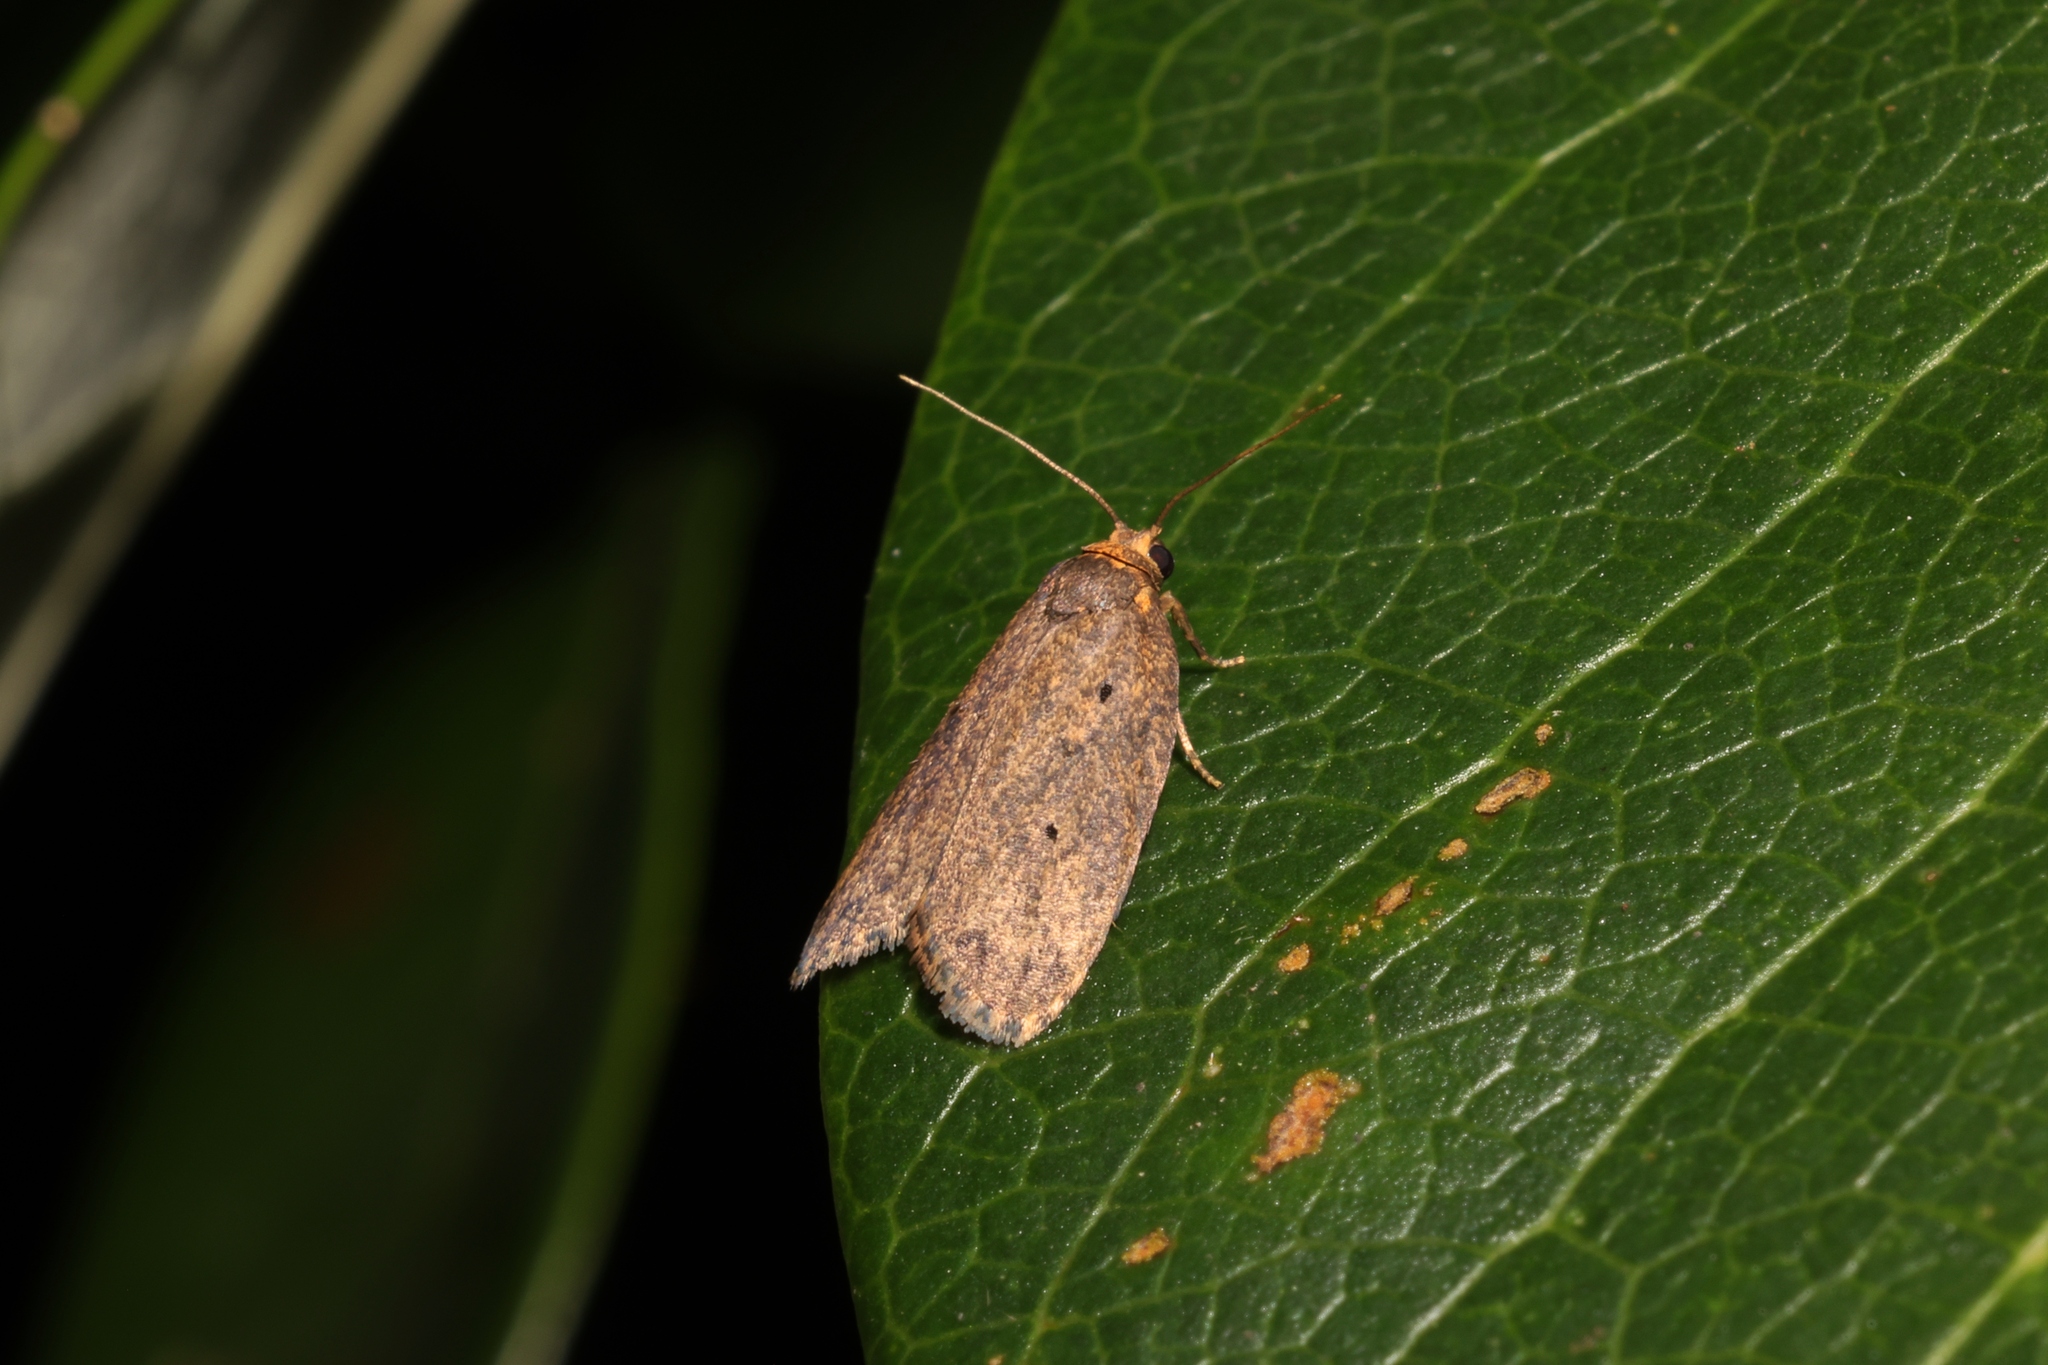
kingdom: Animalia
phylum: Arthropoda
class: Insecta
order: Lepidoptera
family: Erebidae
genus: Eugoa
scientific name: Eugoa brunnea
